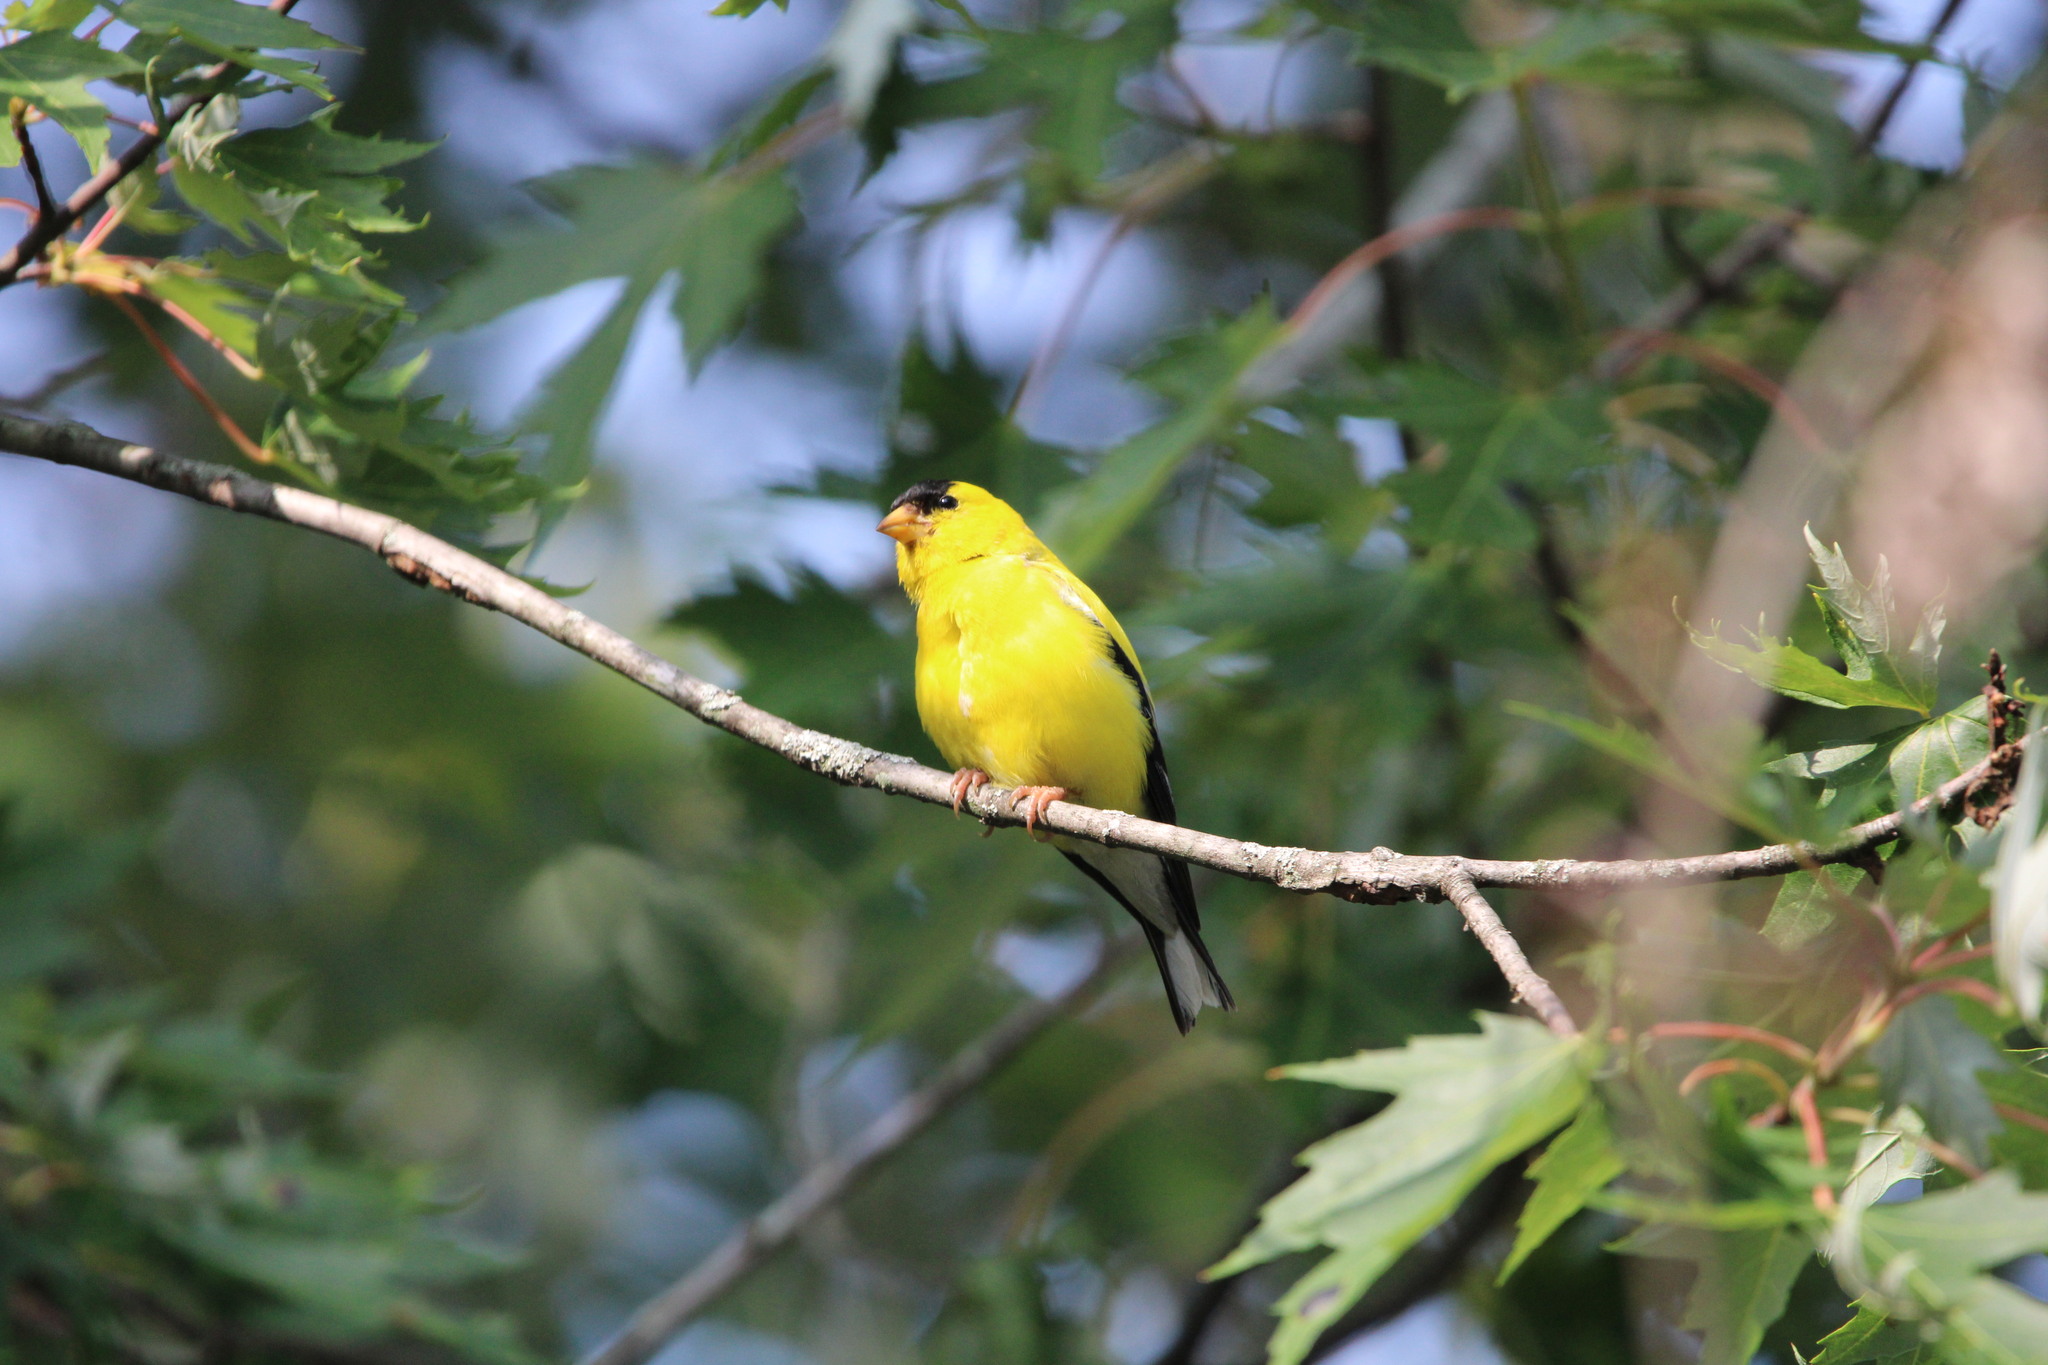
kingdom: Animalia
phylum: Chordata
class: Aves
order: Passeriformes
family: Fringillidae
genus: Spinus
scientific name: Spinus tristis
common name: American goldfinch
